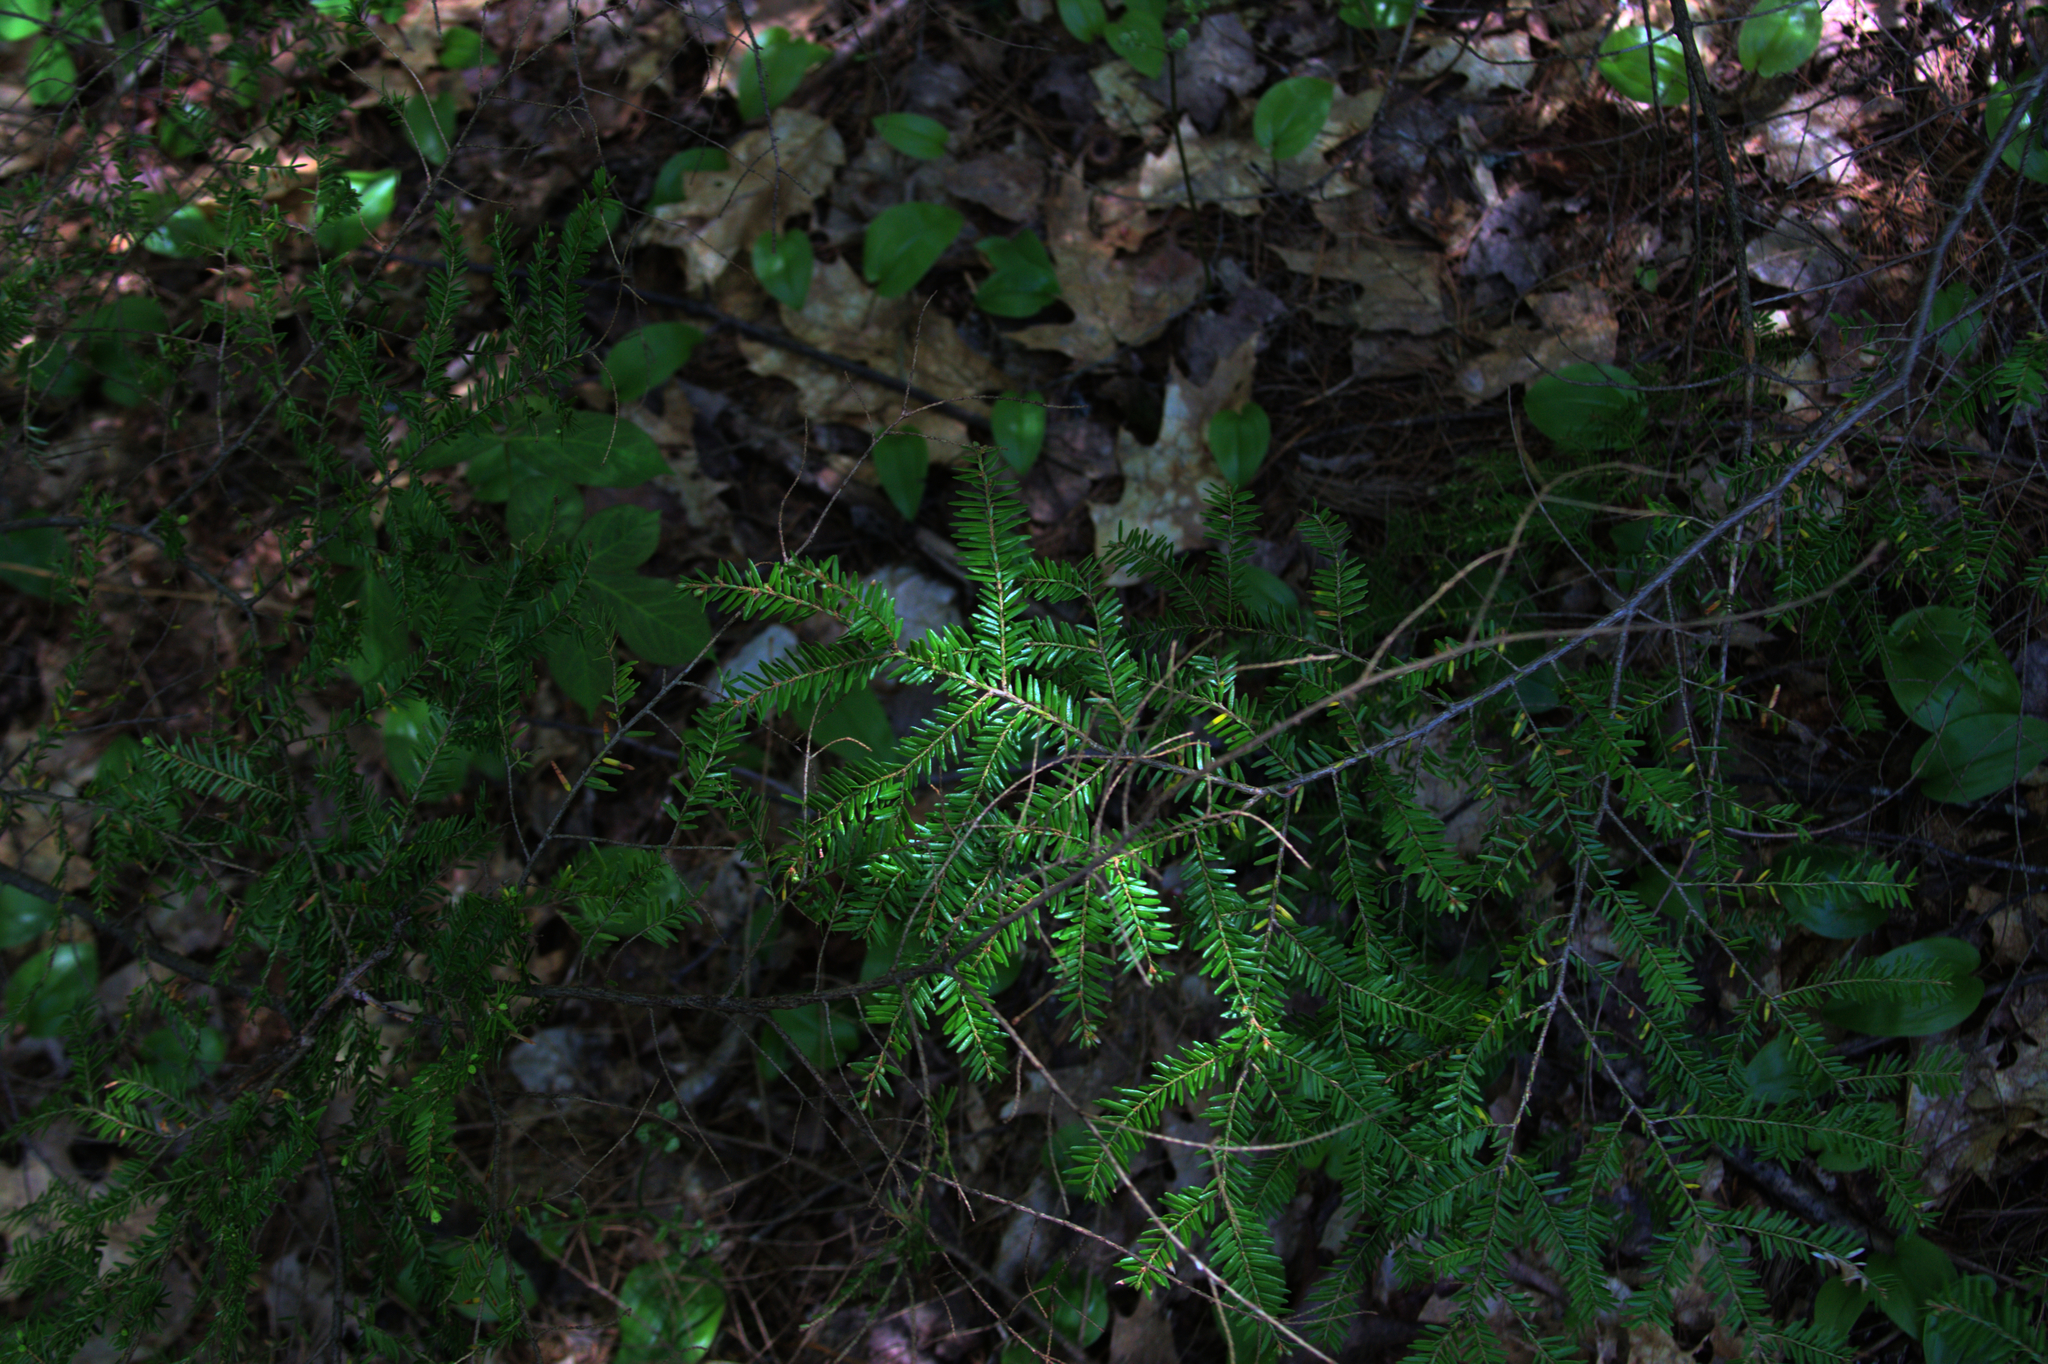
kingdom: Plantae
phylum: Tracheophyta
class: Liliopsida
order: Asparagales
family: Asparagaceae
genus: Maianthemum
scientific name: Maianthemum canadense
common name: False lily-of-the-valley
